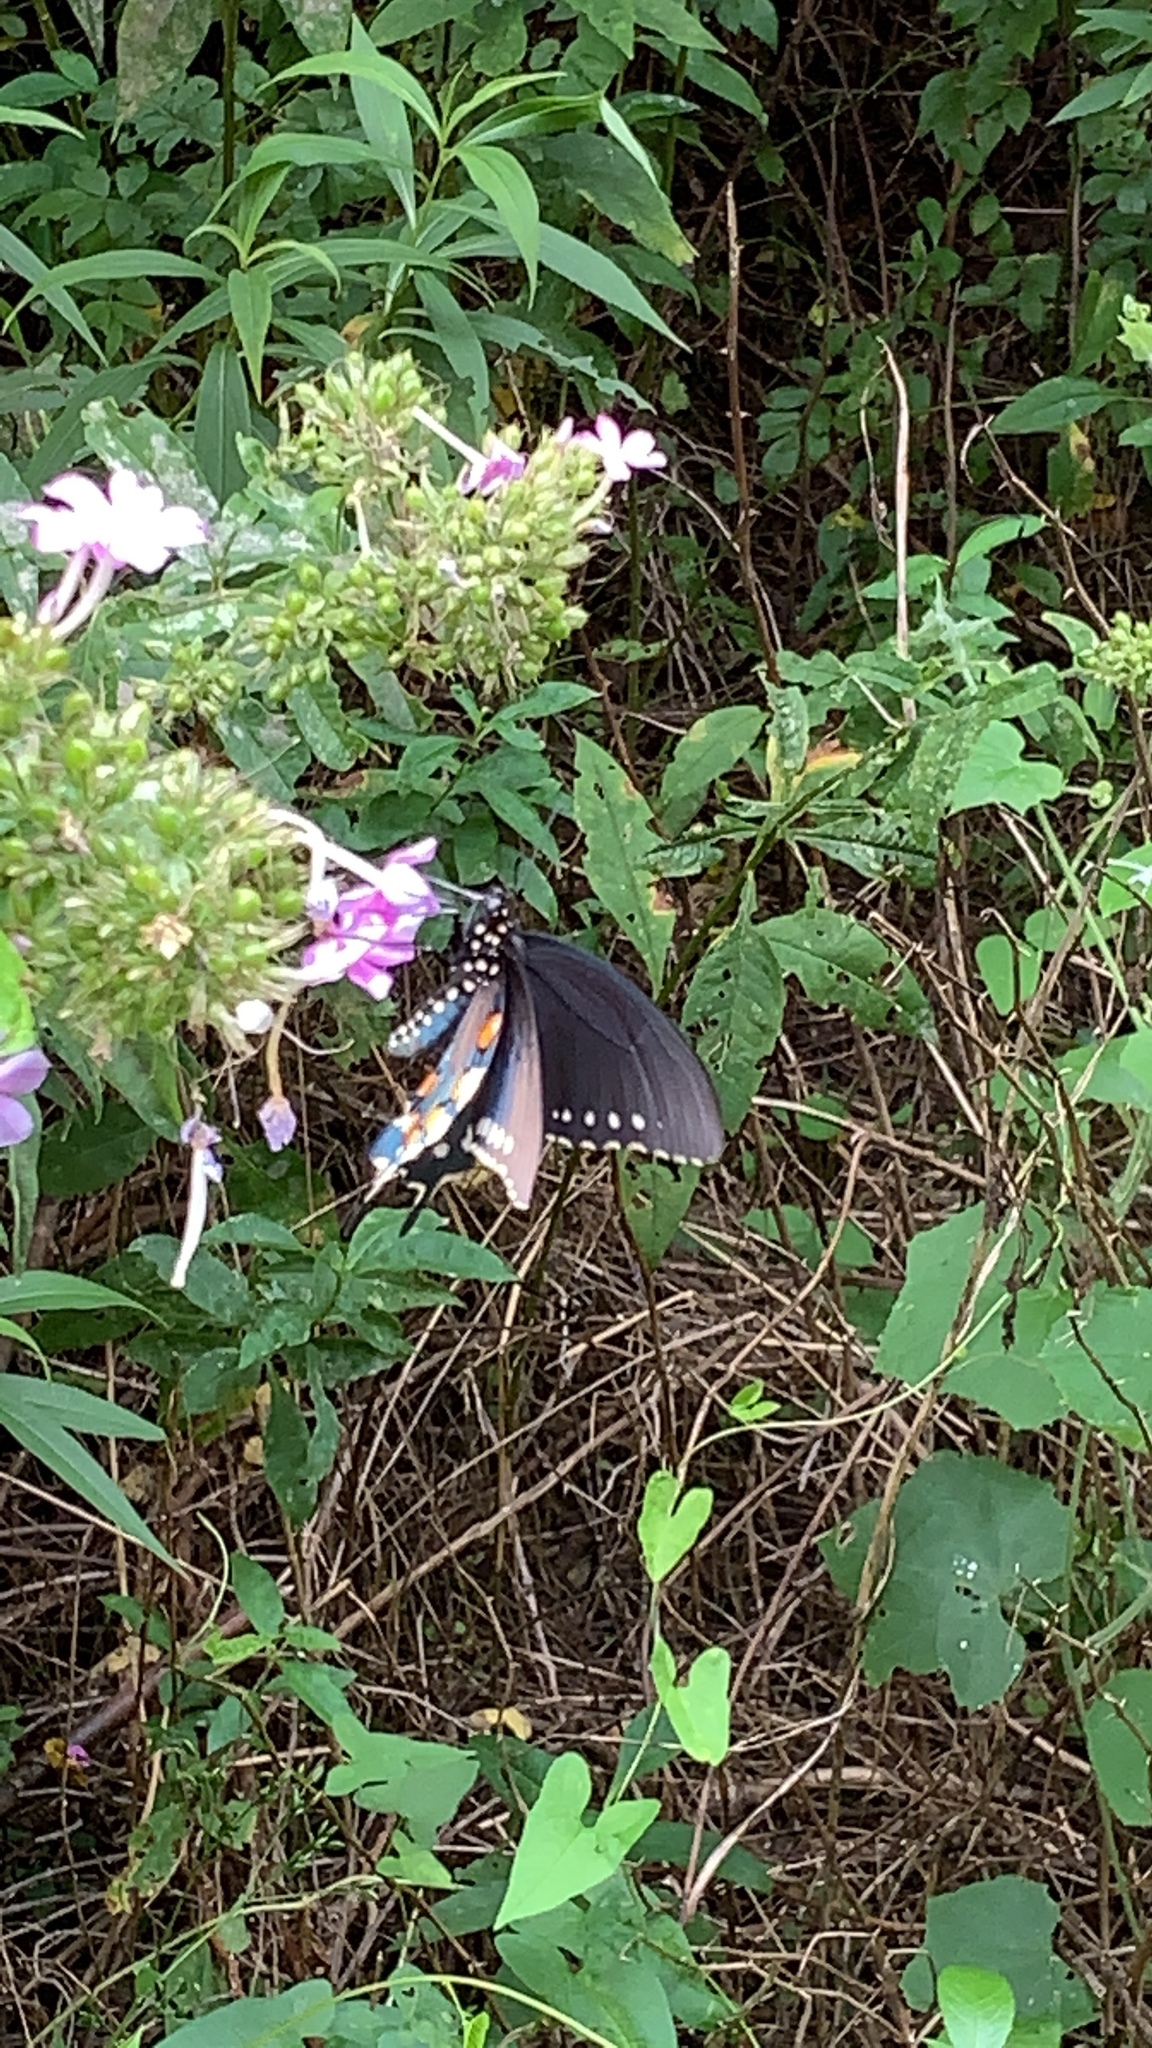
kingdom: Animalia
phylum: Arthropoda
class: Insecta
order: Lepidoptera
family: Papilionidae
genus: Battus
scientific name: Battus philenor
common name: Pipevine swallowtail
